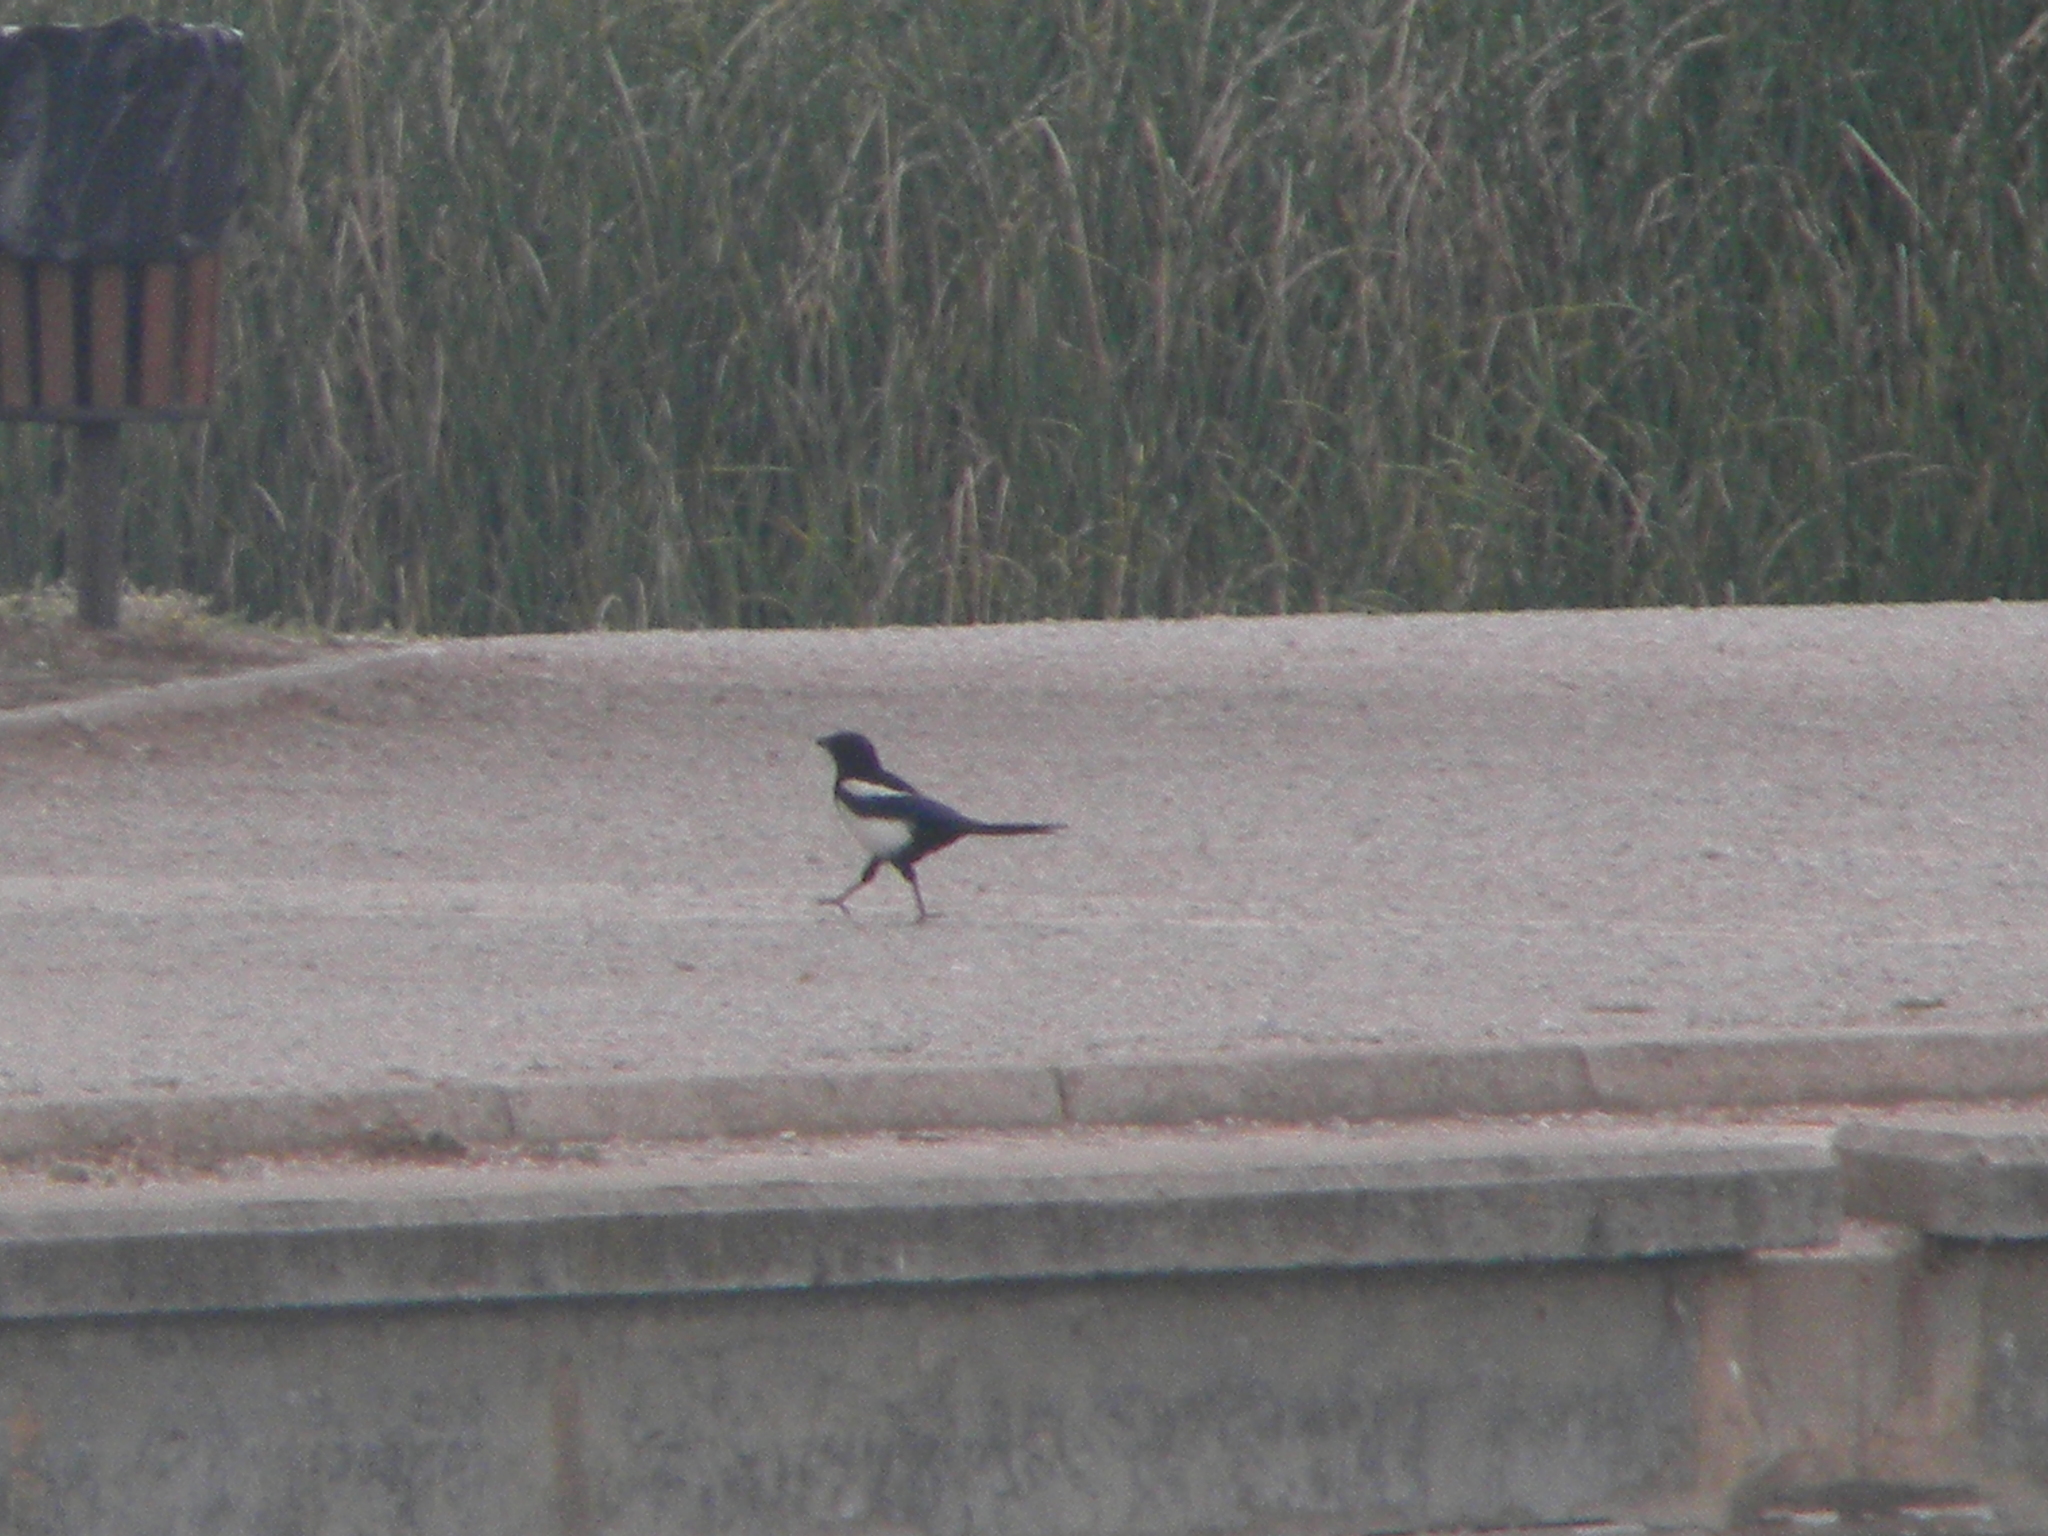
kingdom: Animalia
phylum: Chordata
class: Aves
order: Passeriformes
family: Corvidae
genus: Pica
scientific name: Pica pica
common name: Eurasian magpie
